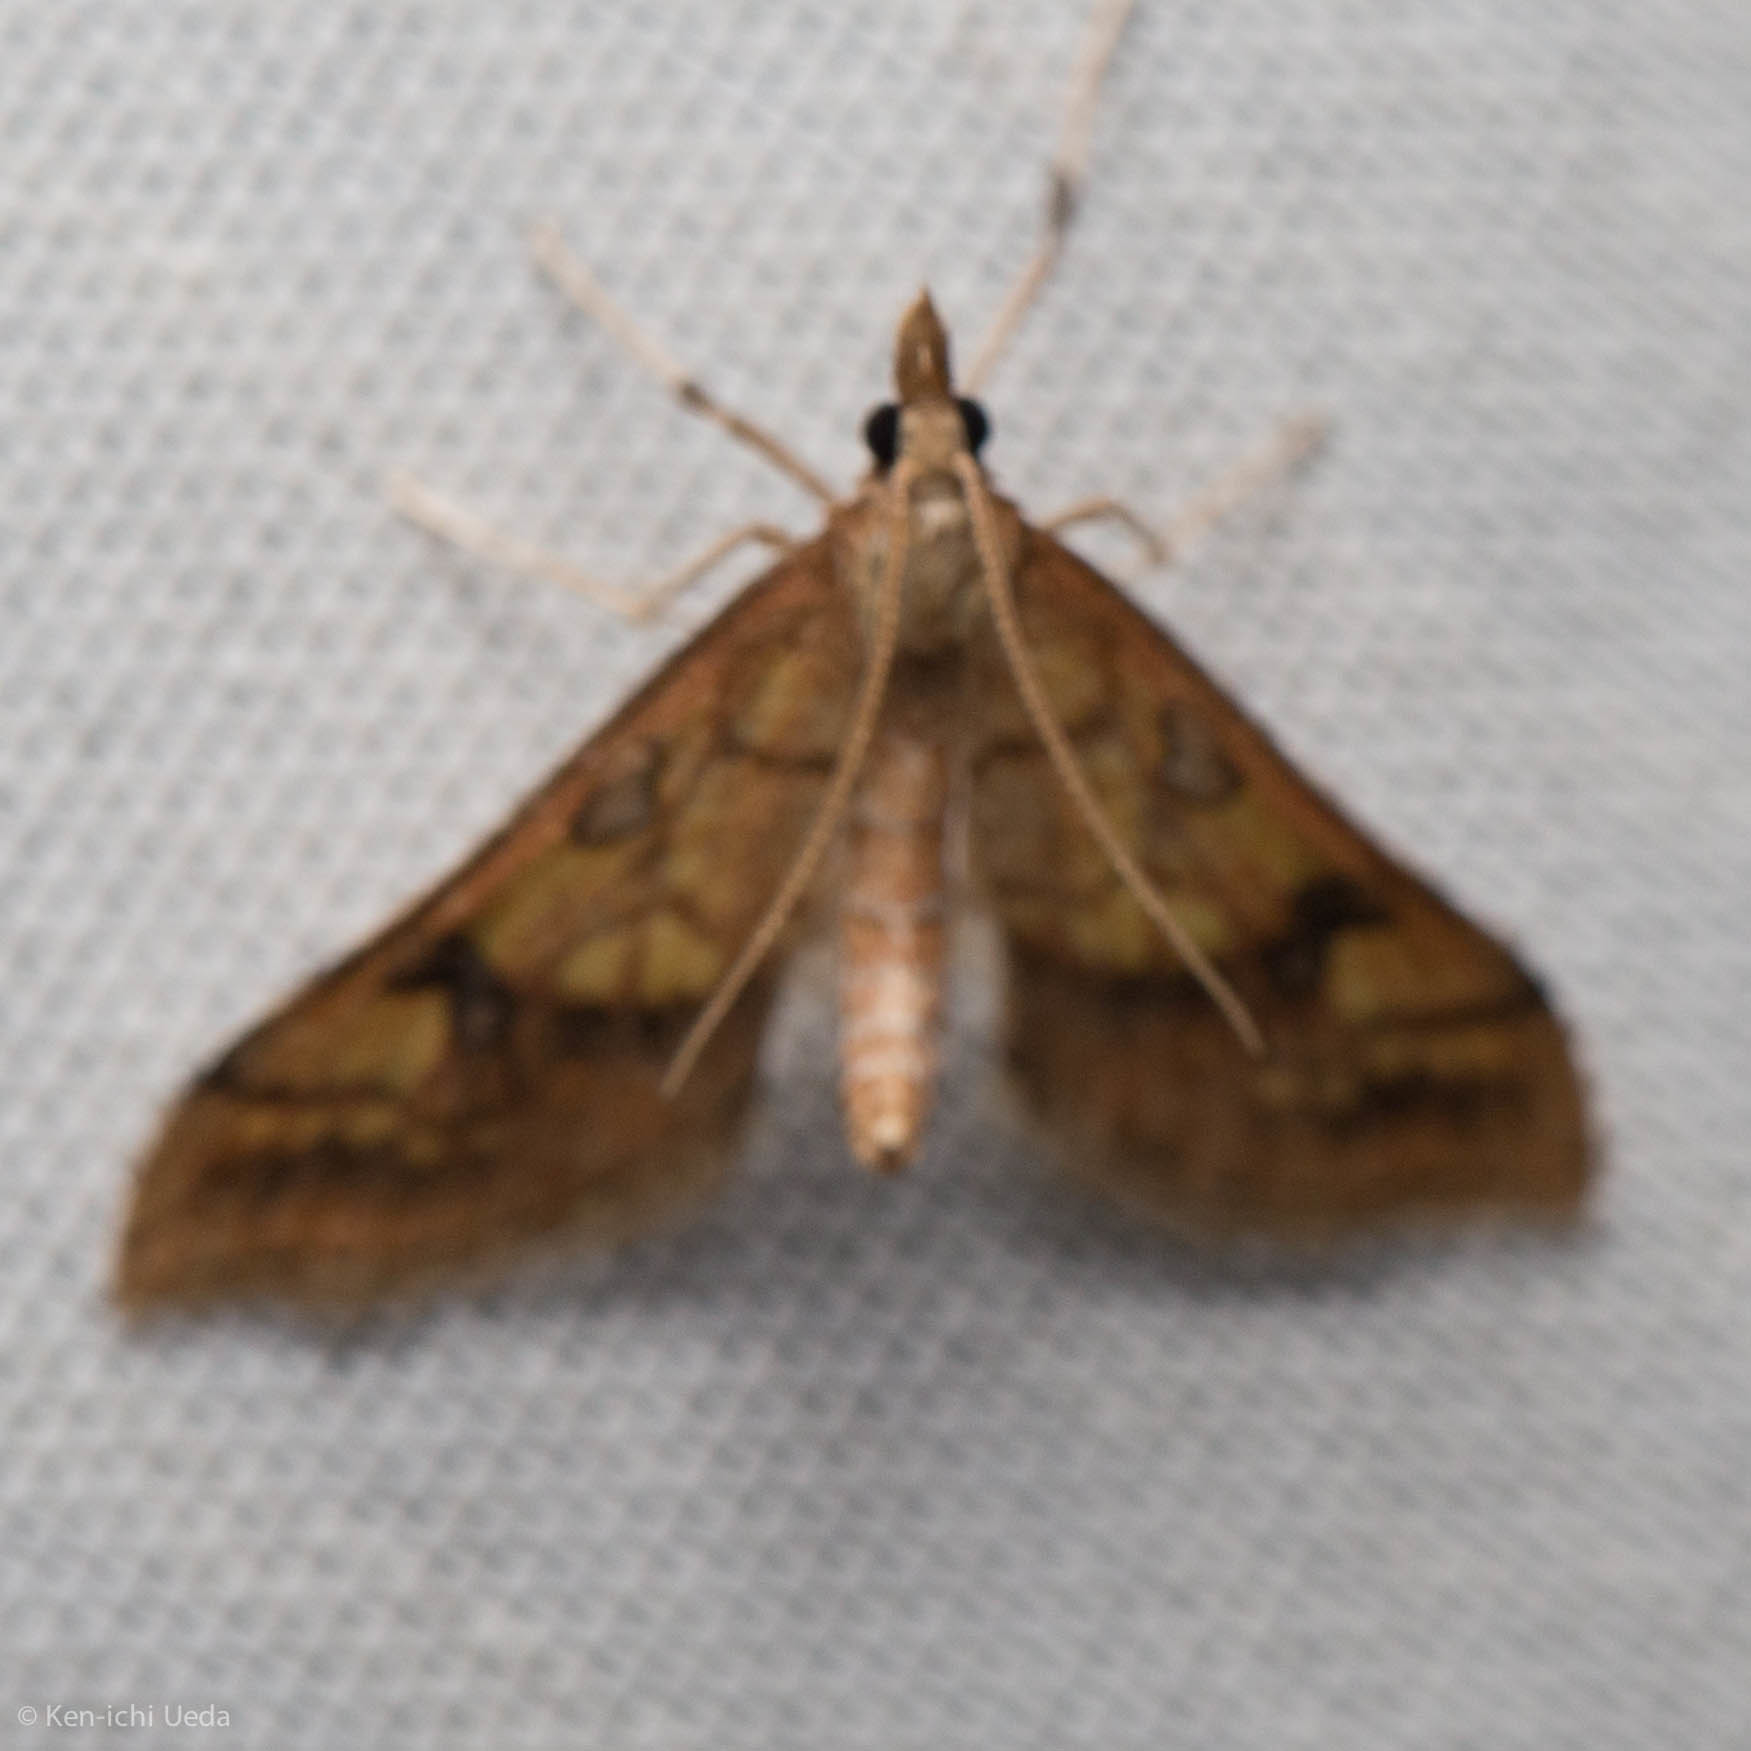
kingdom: Animalia
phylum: Arthropoda
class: Insecta
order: Lepidoptera
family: Crambidae
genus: Choristostigma
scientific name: Choristostigma elegantalis
